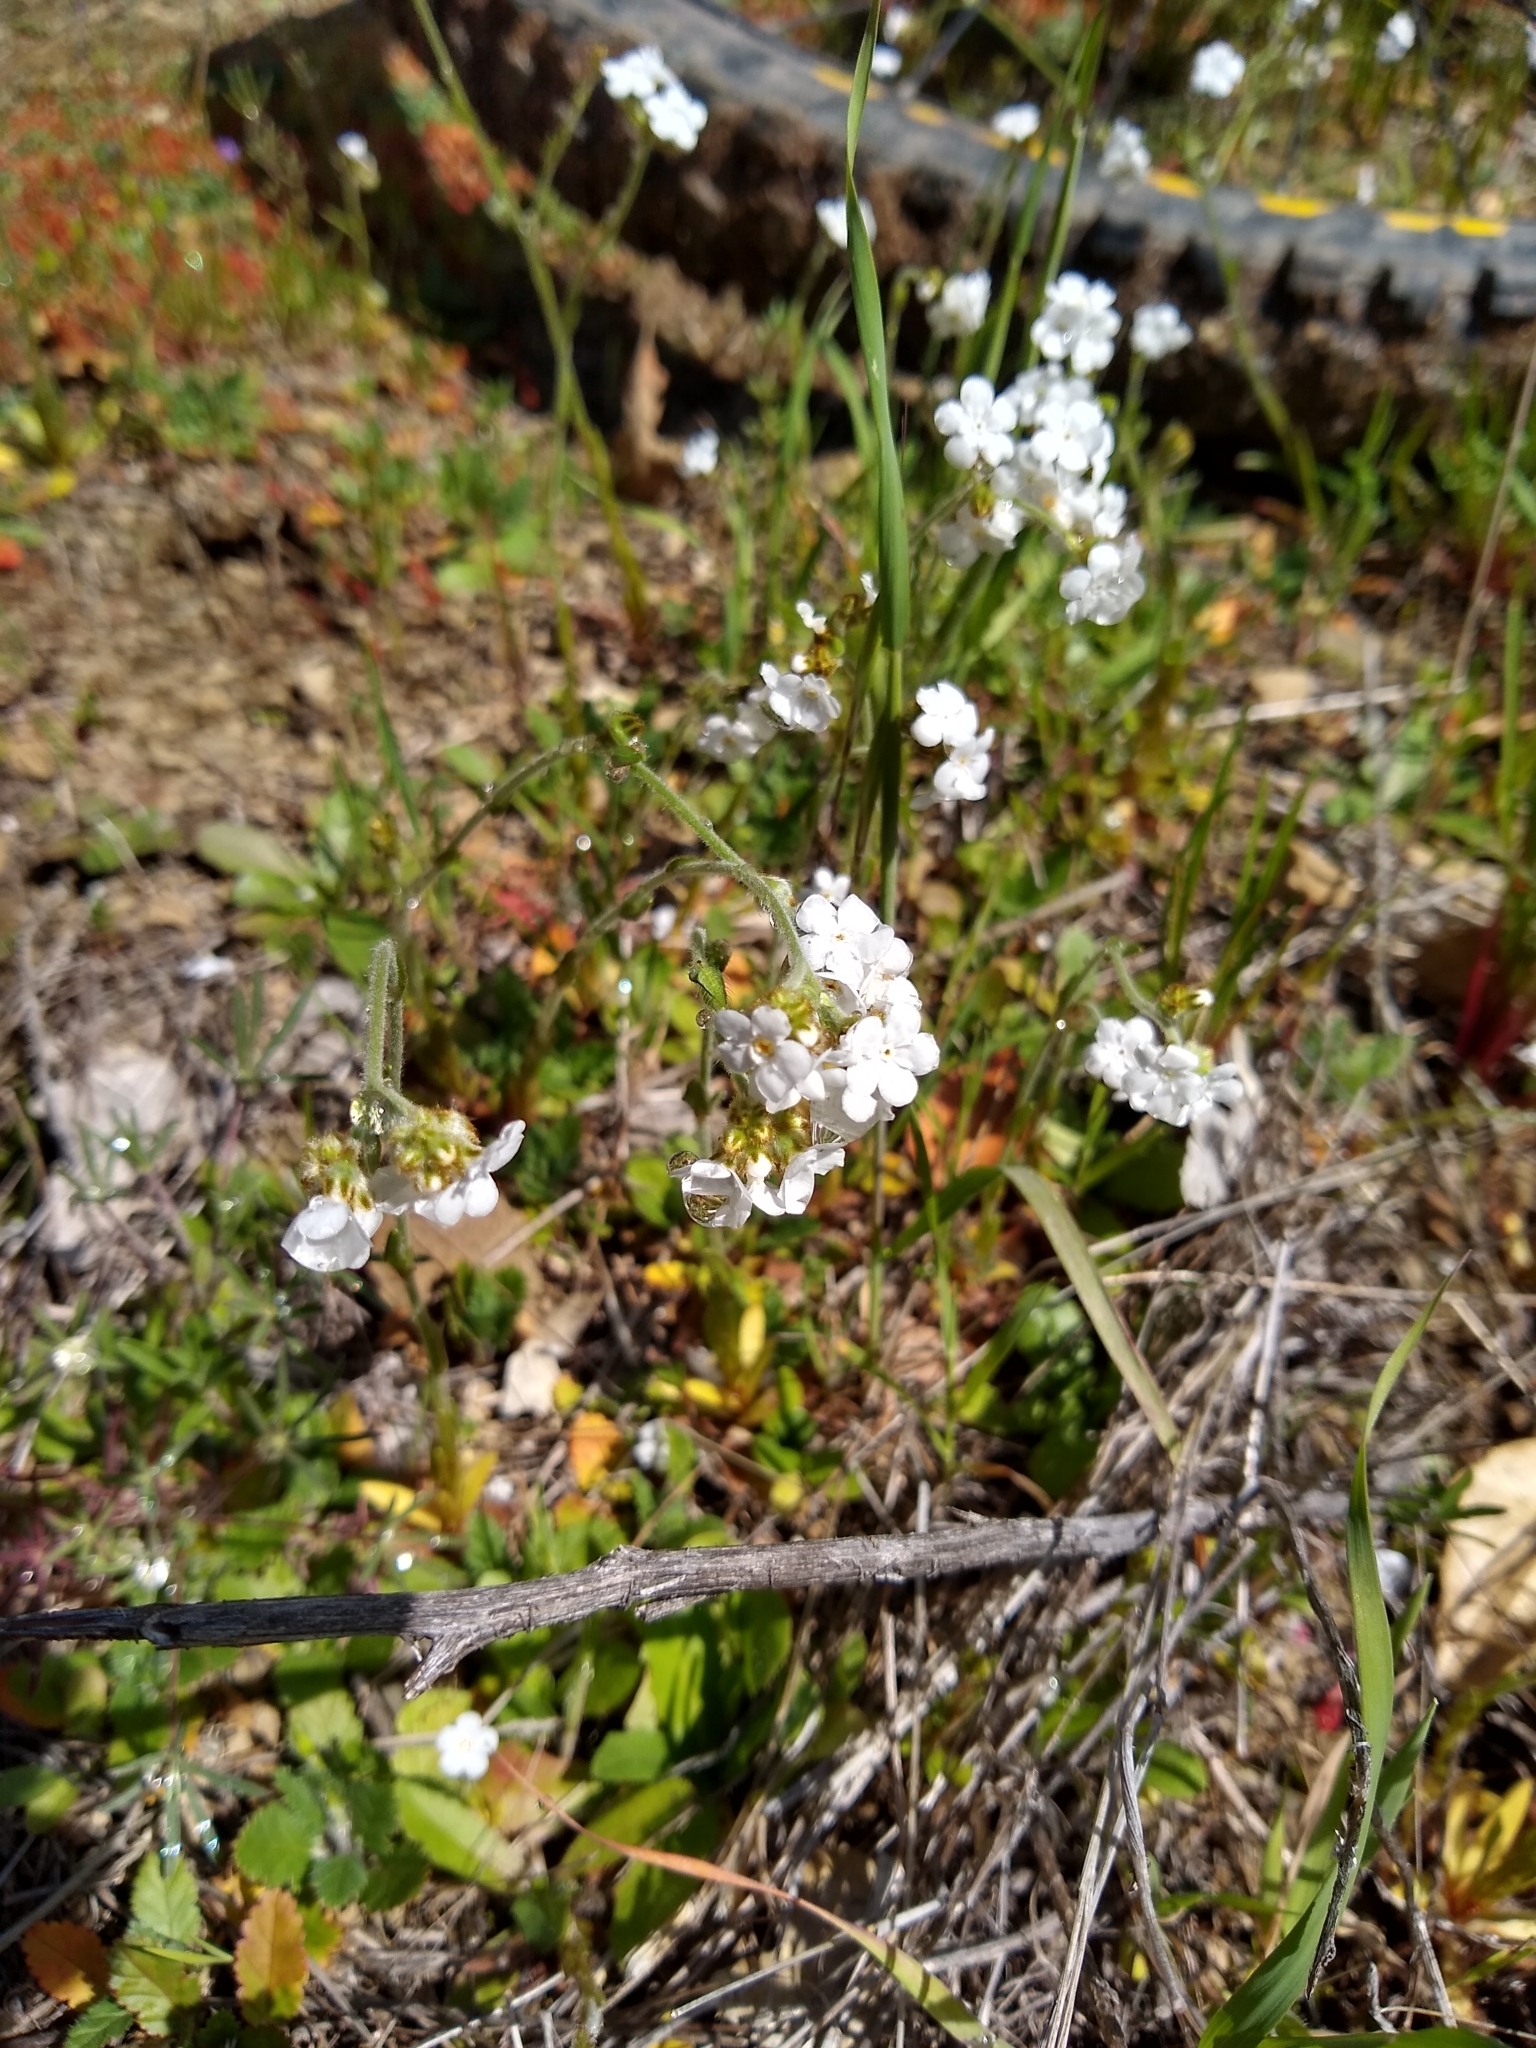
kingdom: Plantae
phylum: Tracheophyta
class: Magnoliopsida
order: Boraginales
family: Boraginaceae
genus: Plagiobothrys
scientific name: Plagiobothrys nothofulvus
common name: Popcorn-flower
